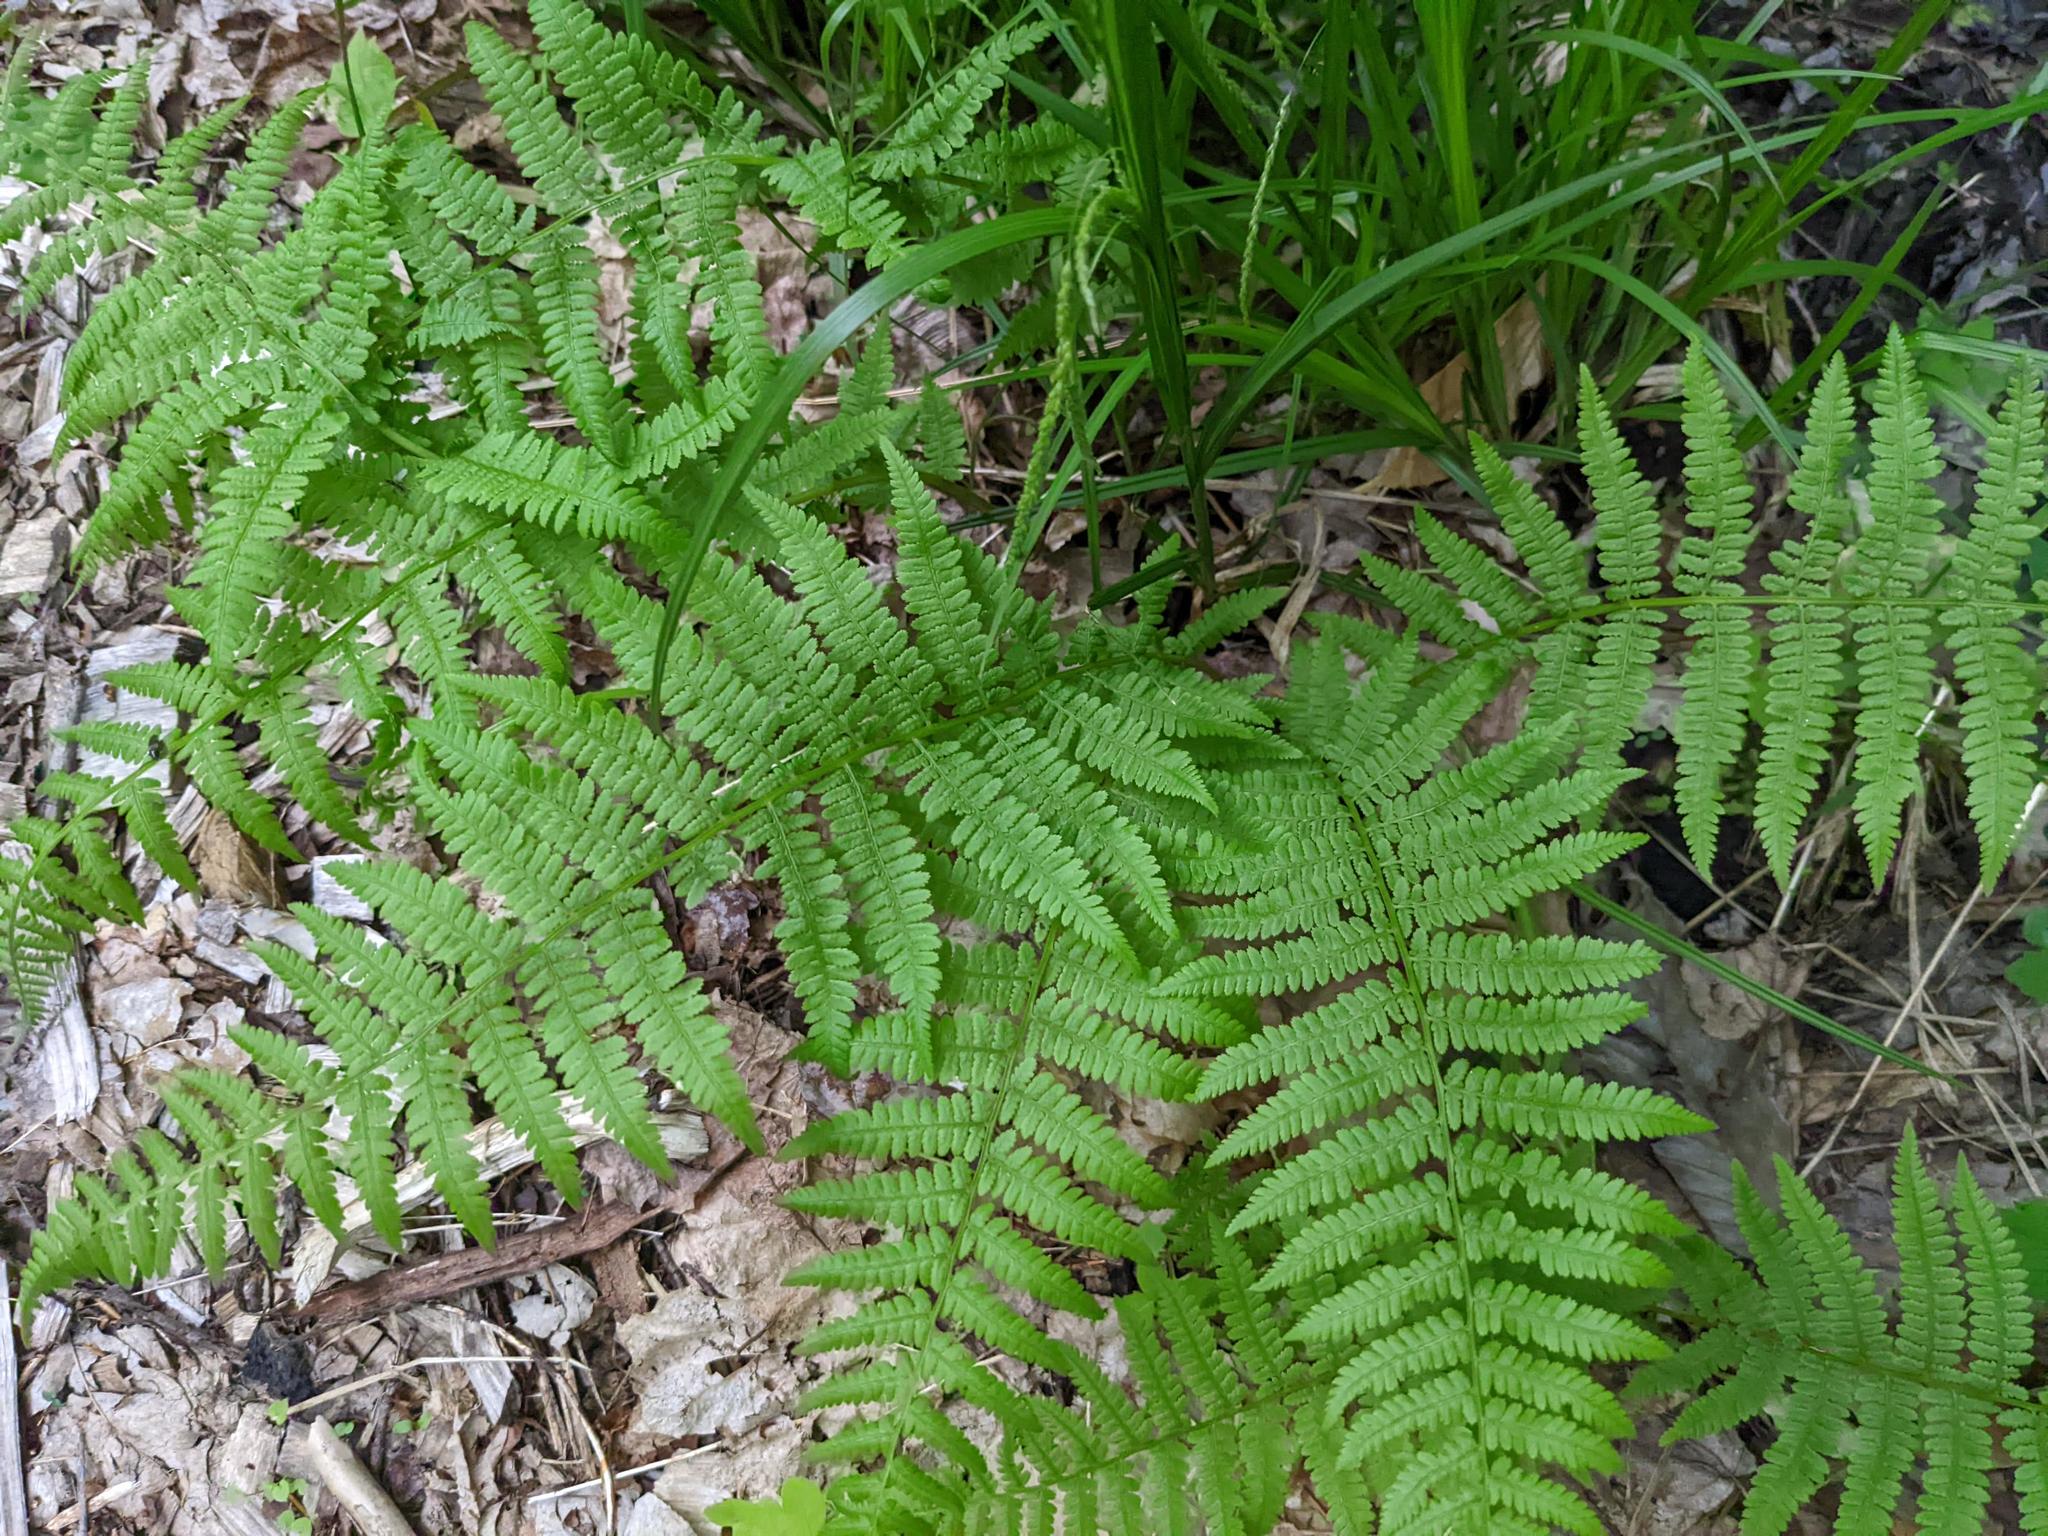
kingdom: Plantae
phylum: Tracheophyta
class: Polypodiopsida
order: Polypodiales
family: Athyriaceae
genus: Athyrium
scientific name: Athyrium angustum
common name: Northern lady fern
